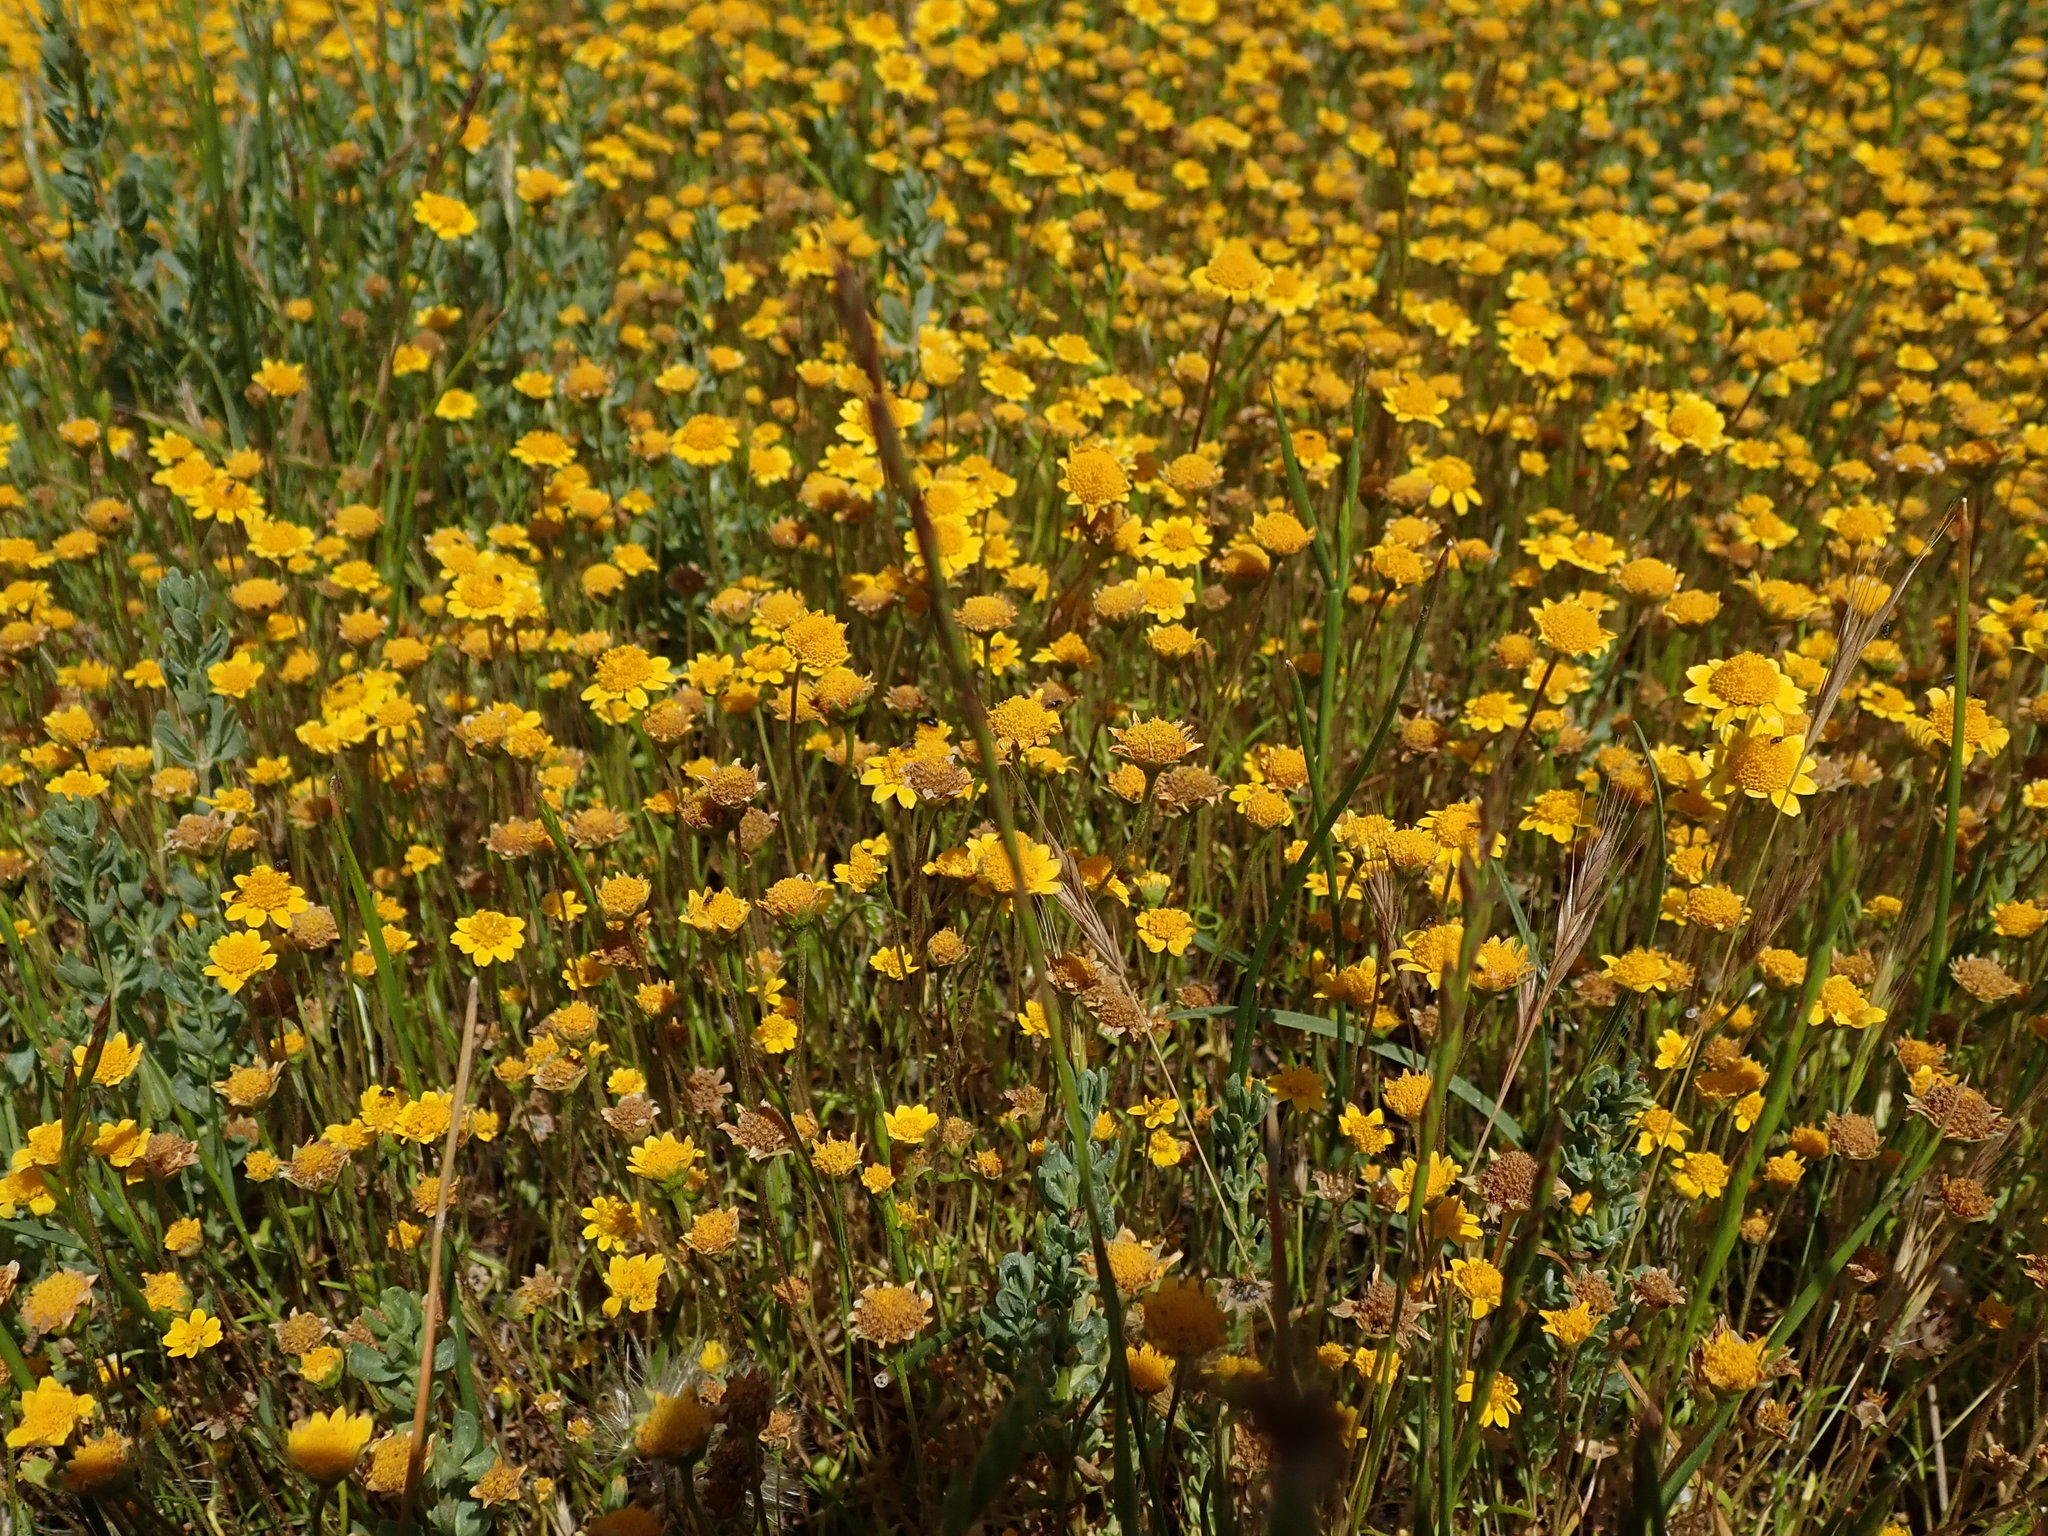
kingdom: Plantae
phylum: Tracheophyta
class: Magnoliopsida
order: Asterales
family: Asteraceae
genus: Lasthenia
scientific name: Lasthenia conjugens
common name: Contra costa goldfields
